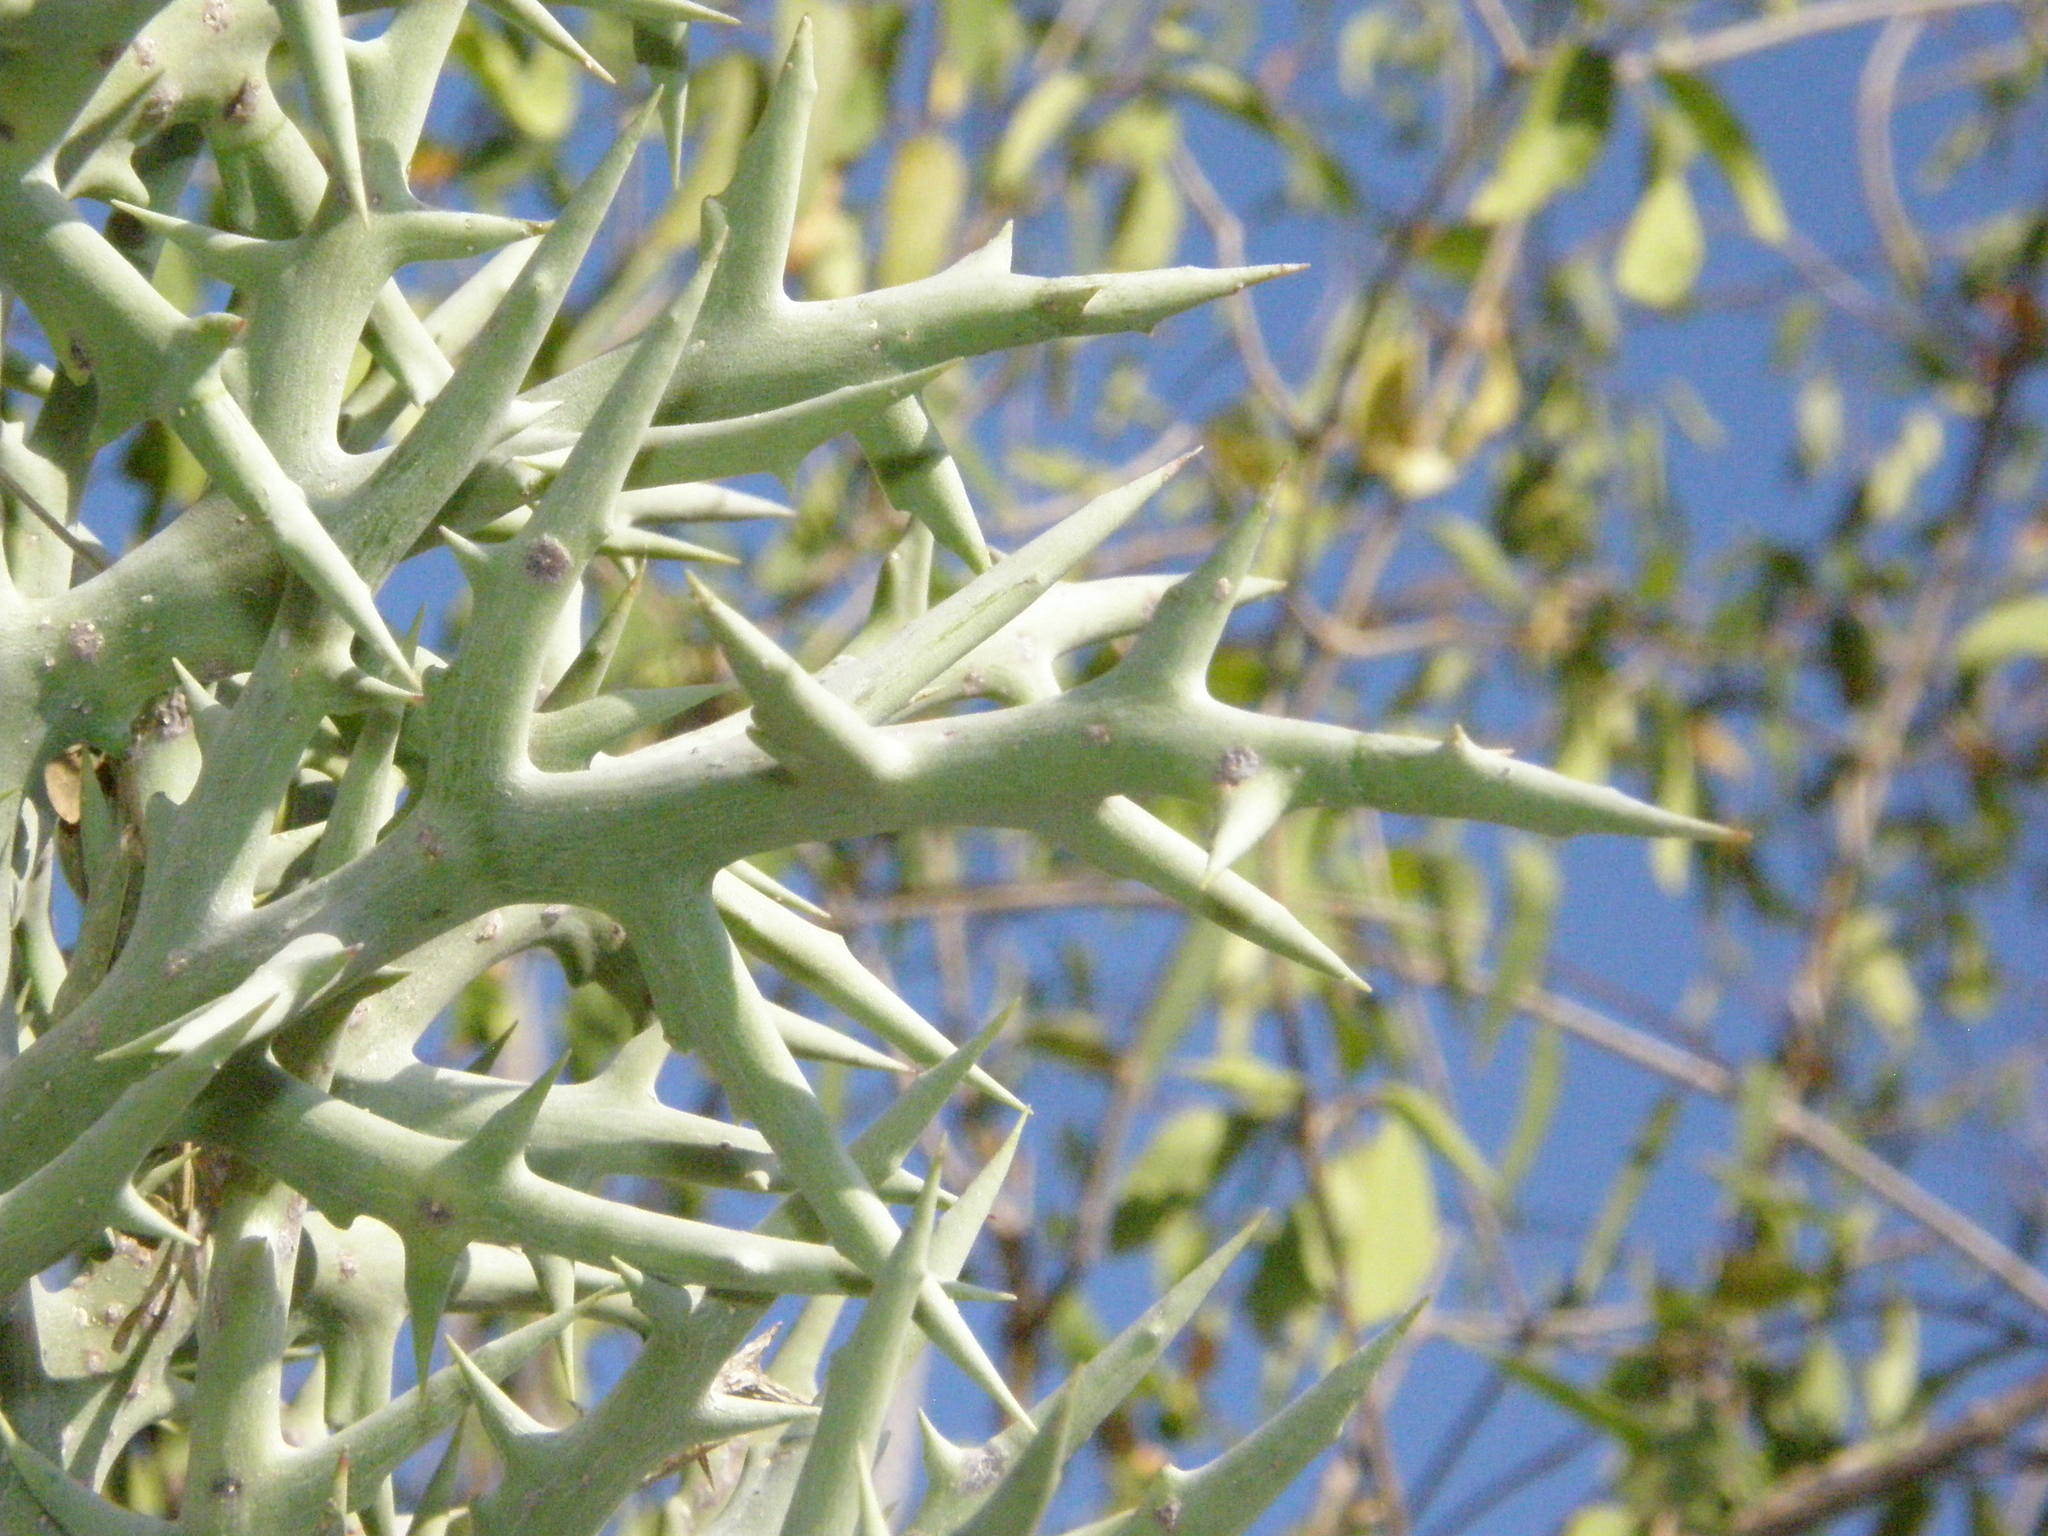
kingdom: Plantae
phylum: Tracheophyta
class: Magnoliopsida
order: Malpighiales
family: Euphorbiaceae
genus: Euphorbia
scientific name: Euphorbia stenoclada
